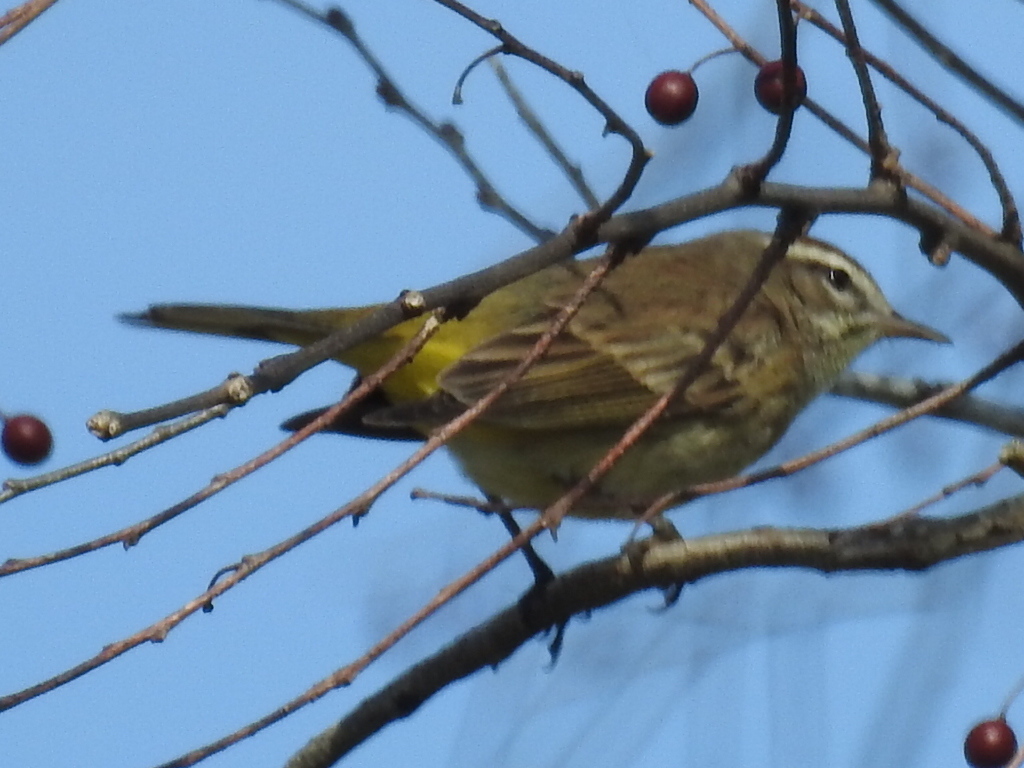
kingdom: Animalia
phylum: Chordata
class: Aves
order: Passeriformes
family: Parulidae
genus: Setophaga
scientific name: Setophaga palmarum
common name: Palm warbler
